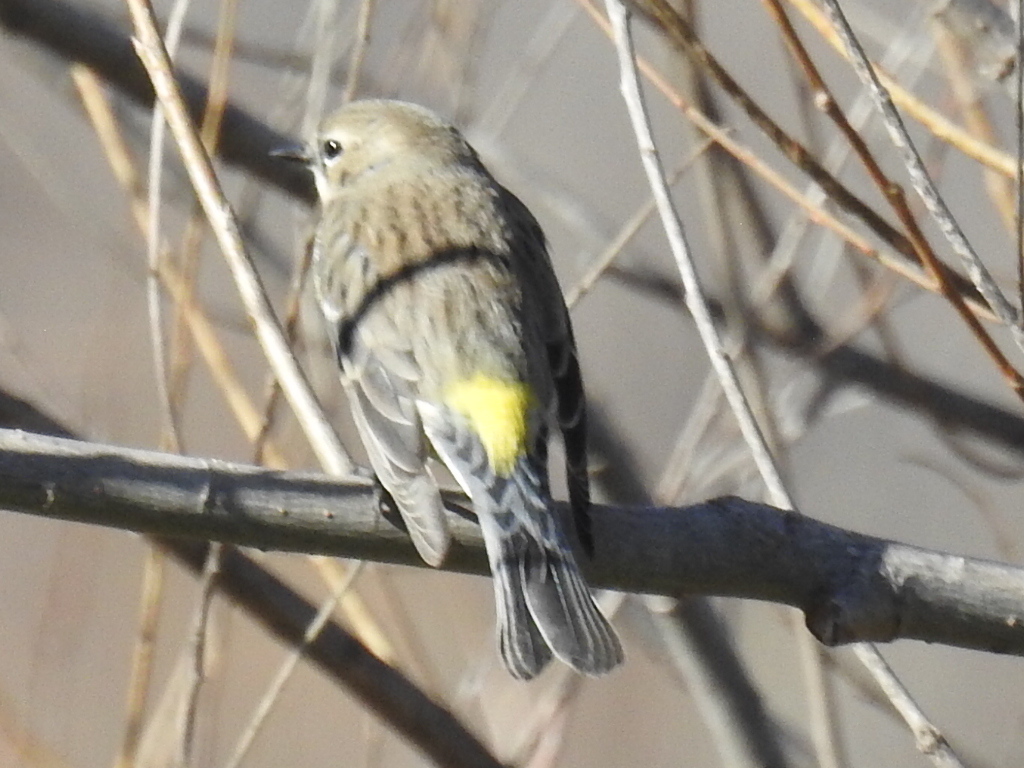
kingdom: Animalia
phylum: Chordata
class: Aves
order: Passeriformes
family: Parulidae
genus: Setophaga
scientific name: Setophaga coronata
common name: Myrtle warbler
